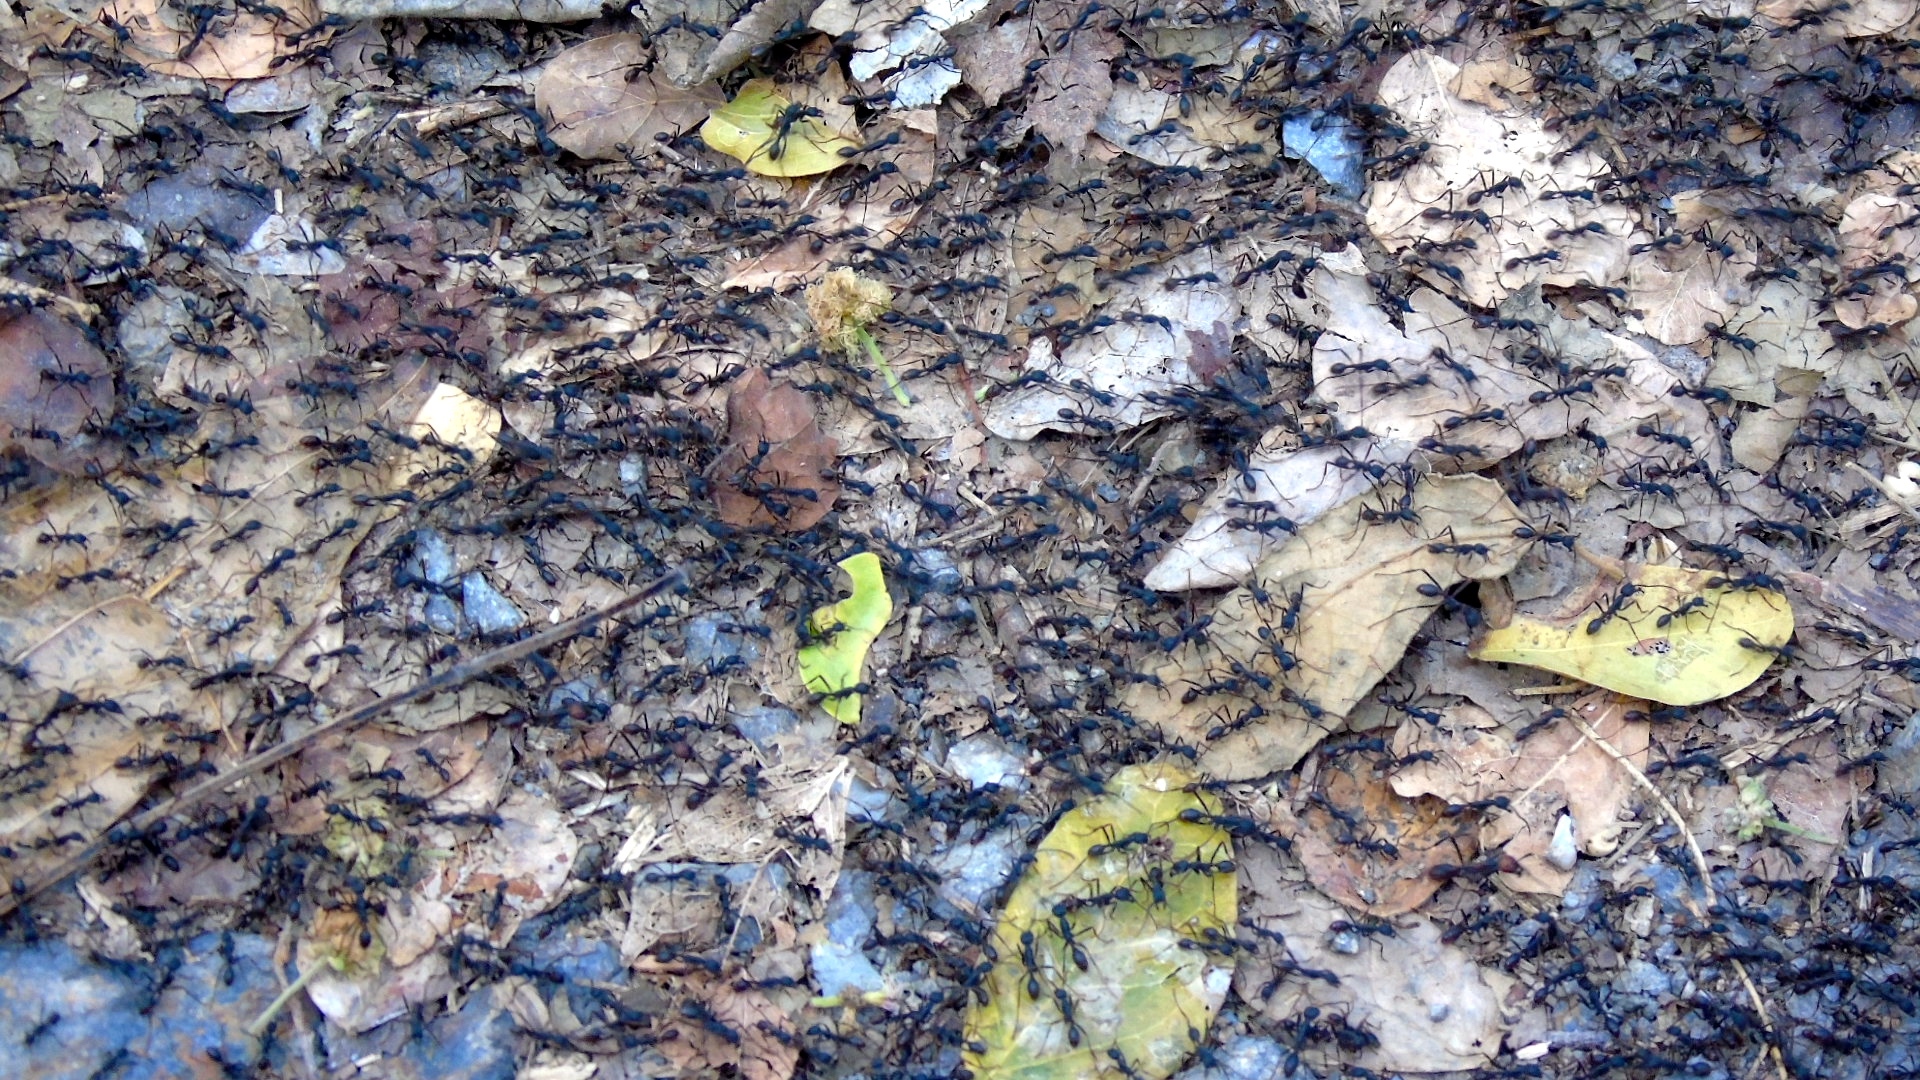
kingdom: Animalia
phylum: Arthropoda
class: Insecta
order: Hymenoptera
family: Formicidae
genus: Eciton
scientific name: Eciton burchellii
